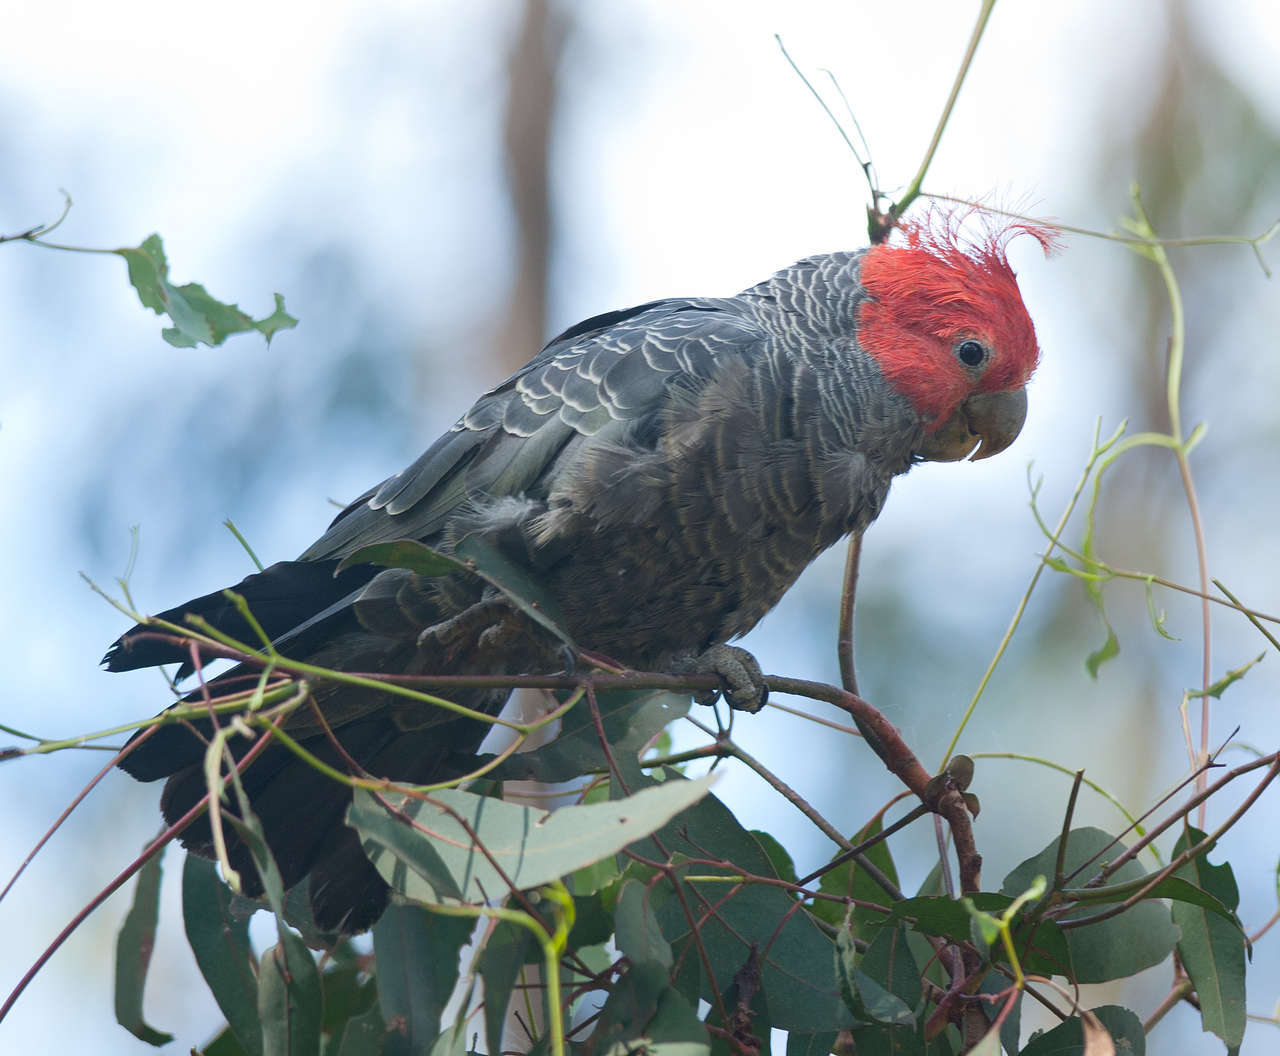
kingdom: Animalia
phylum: Chordata
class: Aves
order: Psittaciformes
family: Psittacidae
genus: Callocephalon
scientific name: Callocephalon fimbriatum
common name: Gang-gang cockatoo
